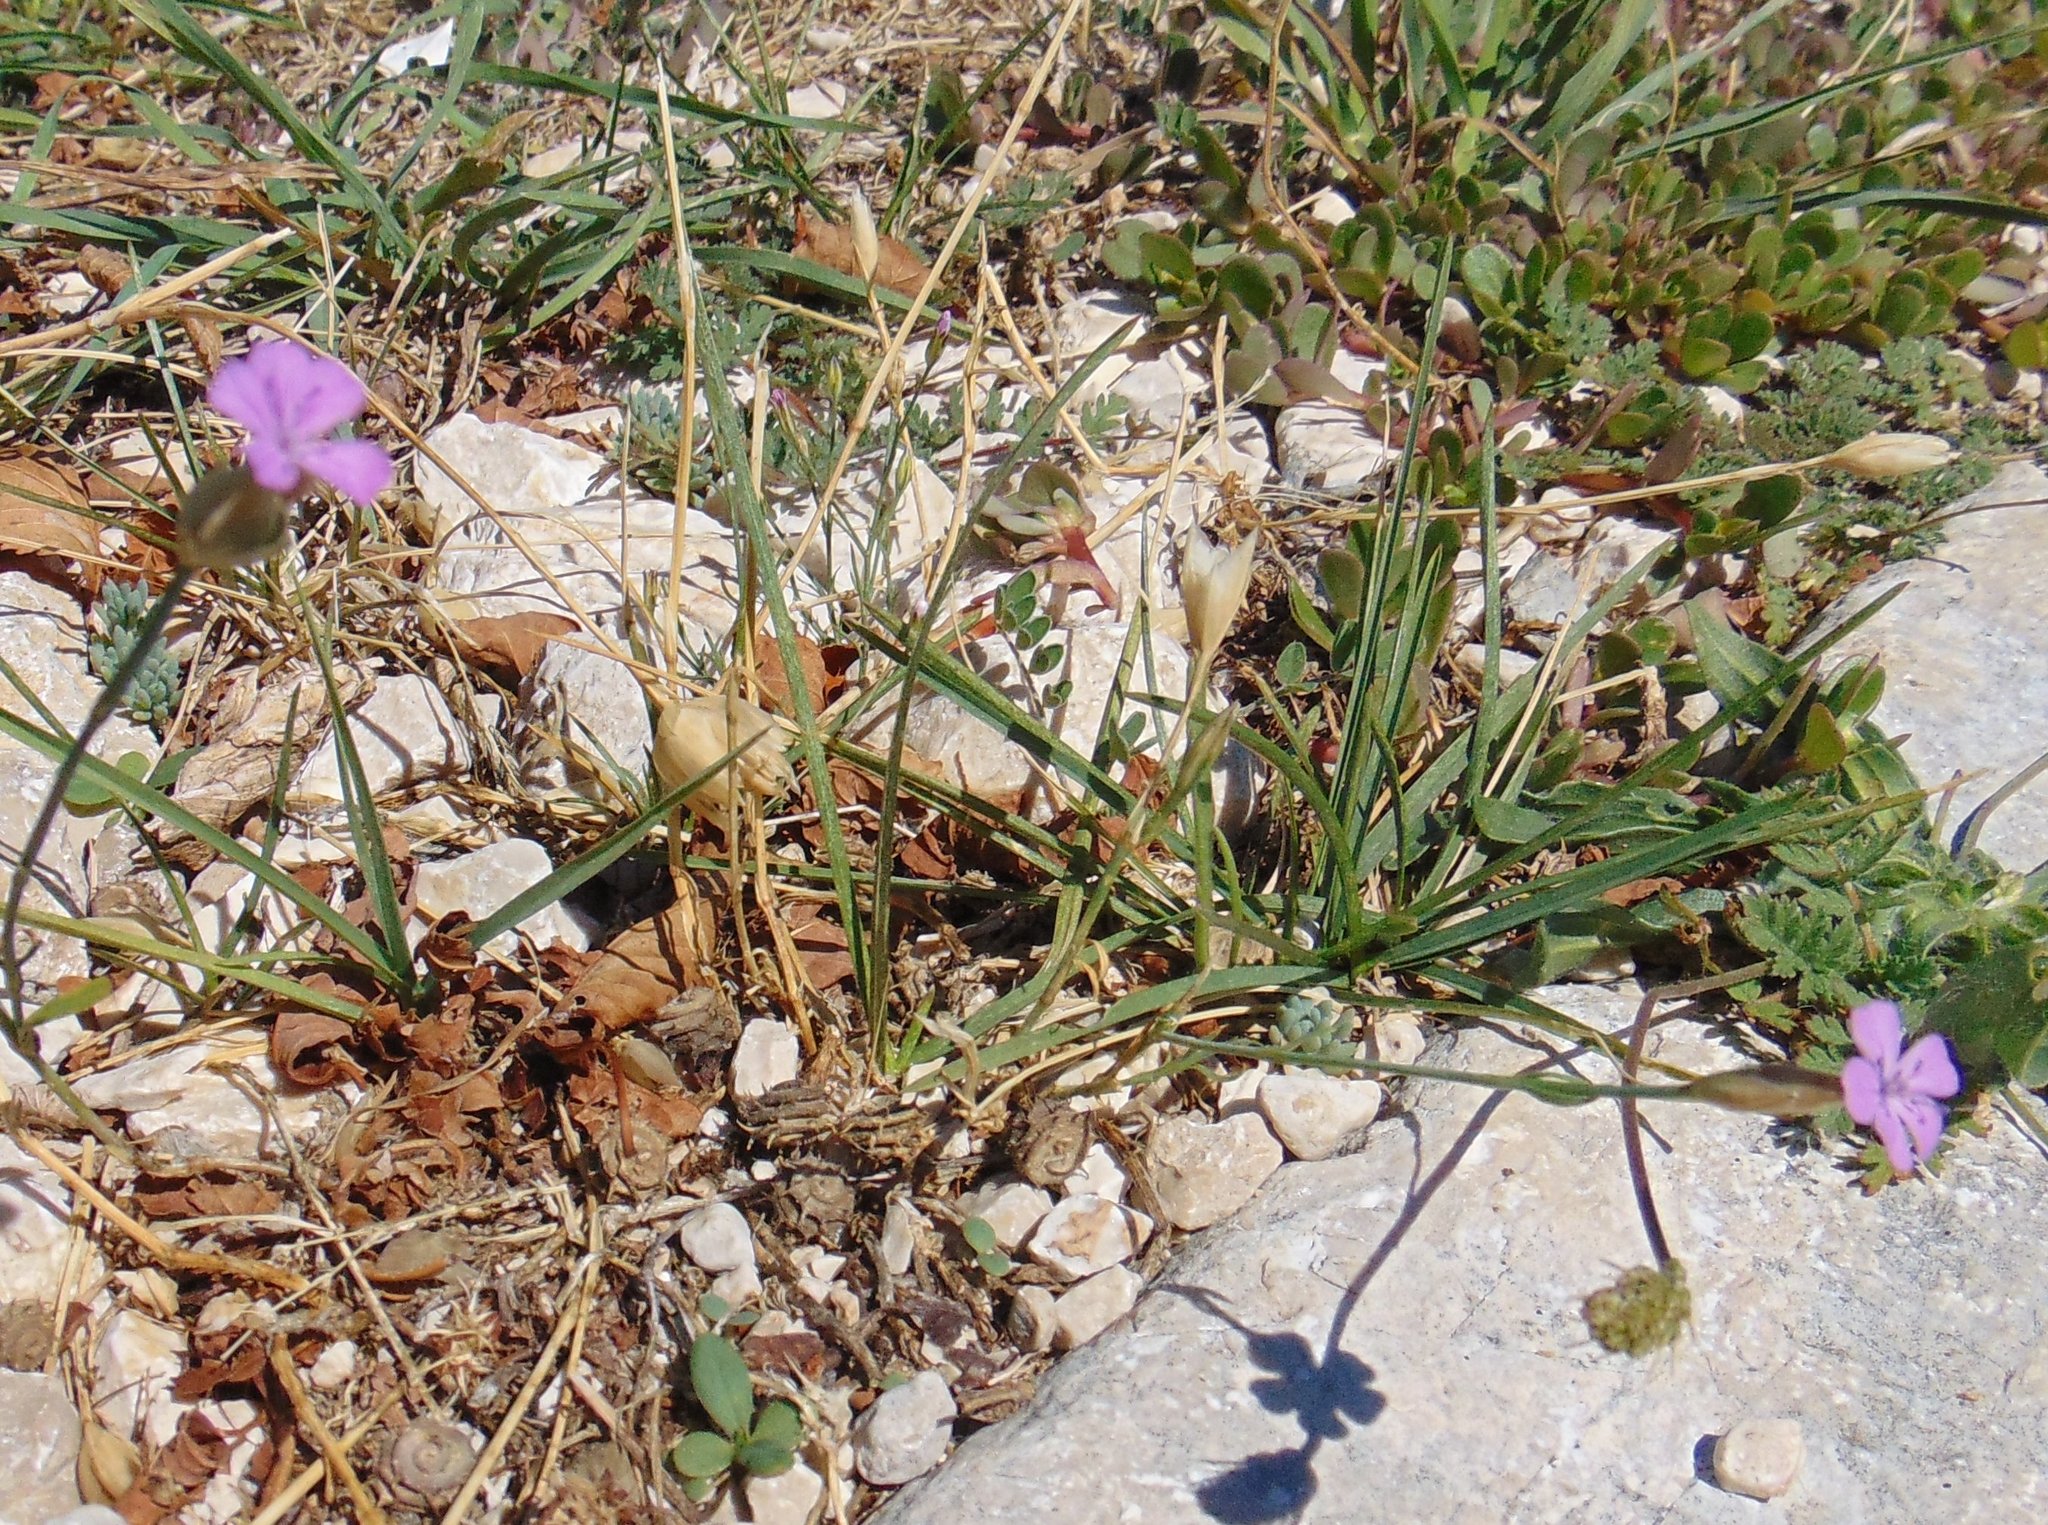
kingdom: Plantae
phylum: Tracheophyta
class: Magnoliopsida
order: Caryophyllales
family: Caryophyllaceae
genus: Petrorhagia
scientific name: Petrorhagia prolifera
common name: Proliferous pink
